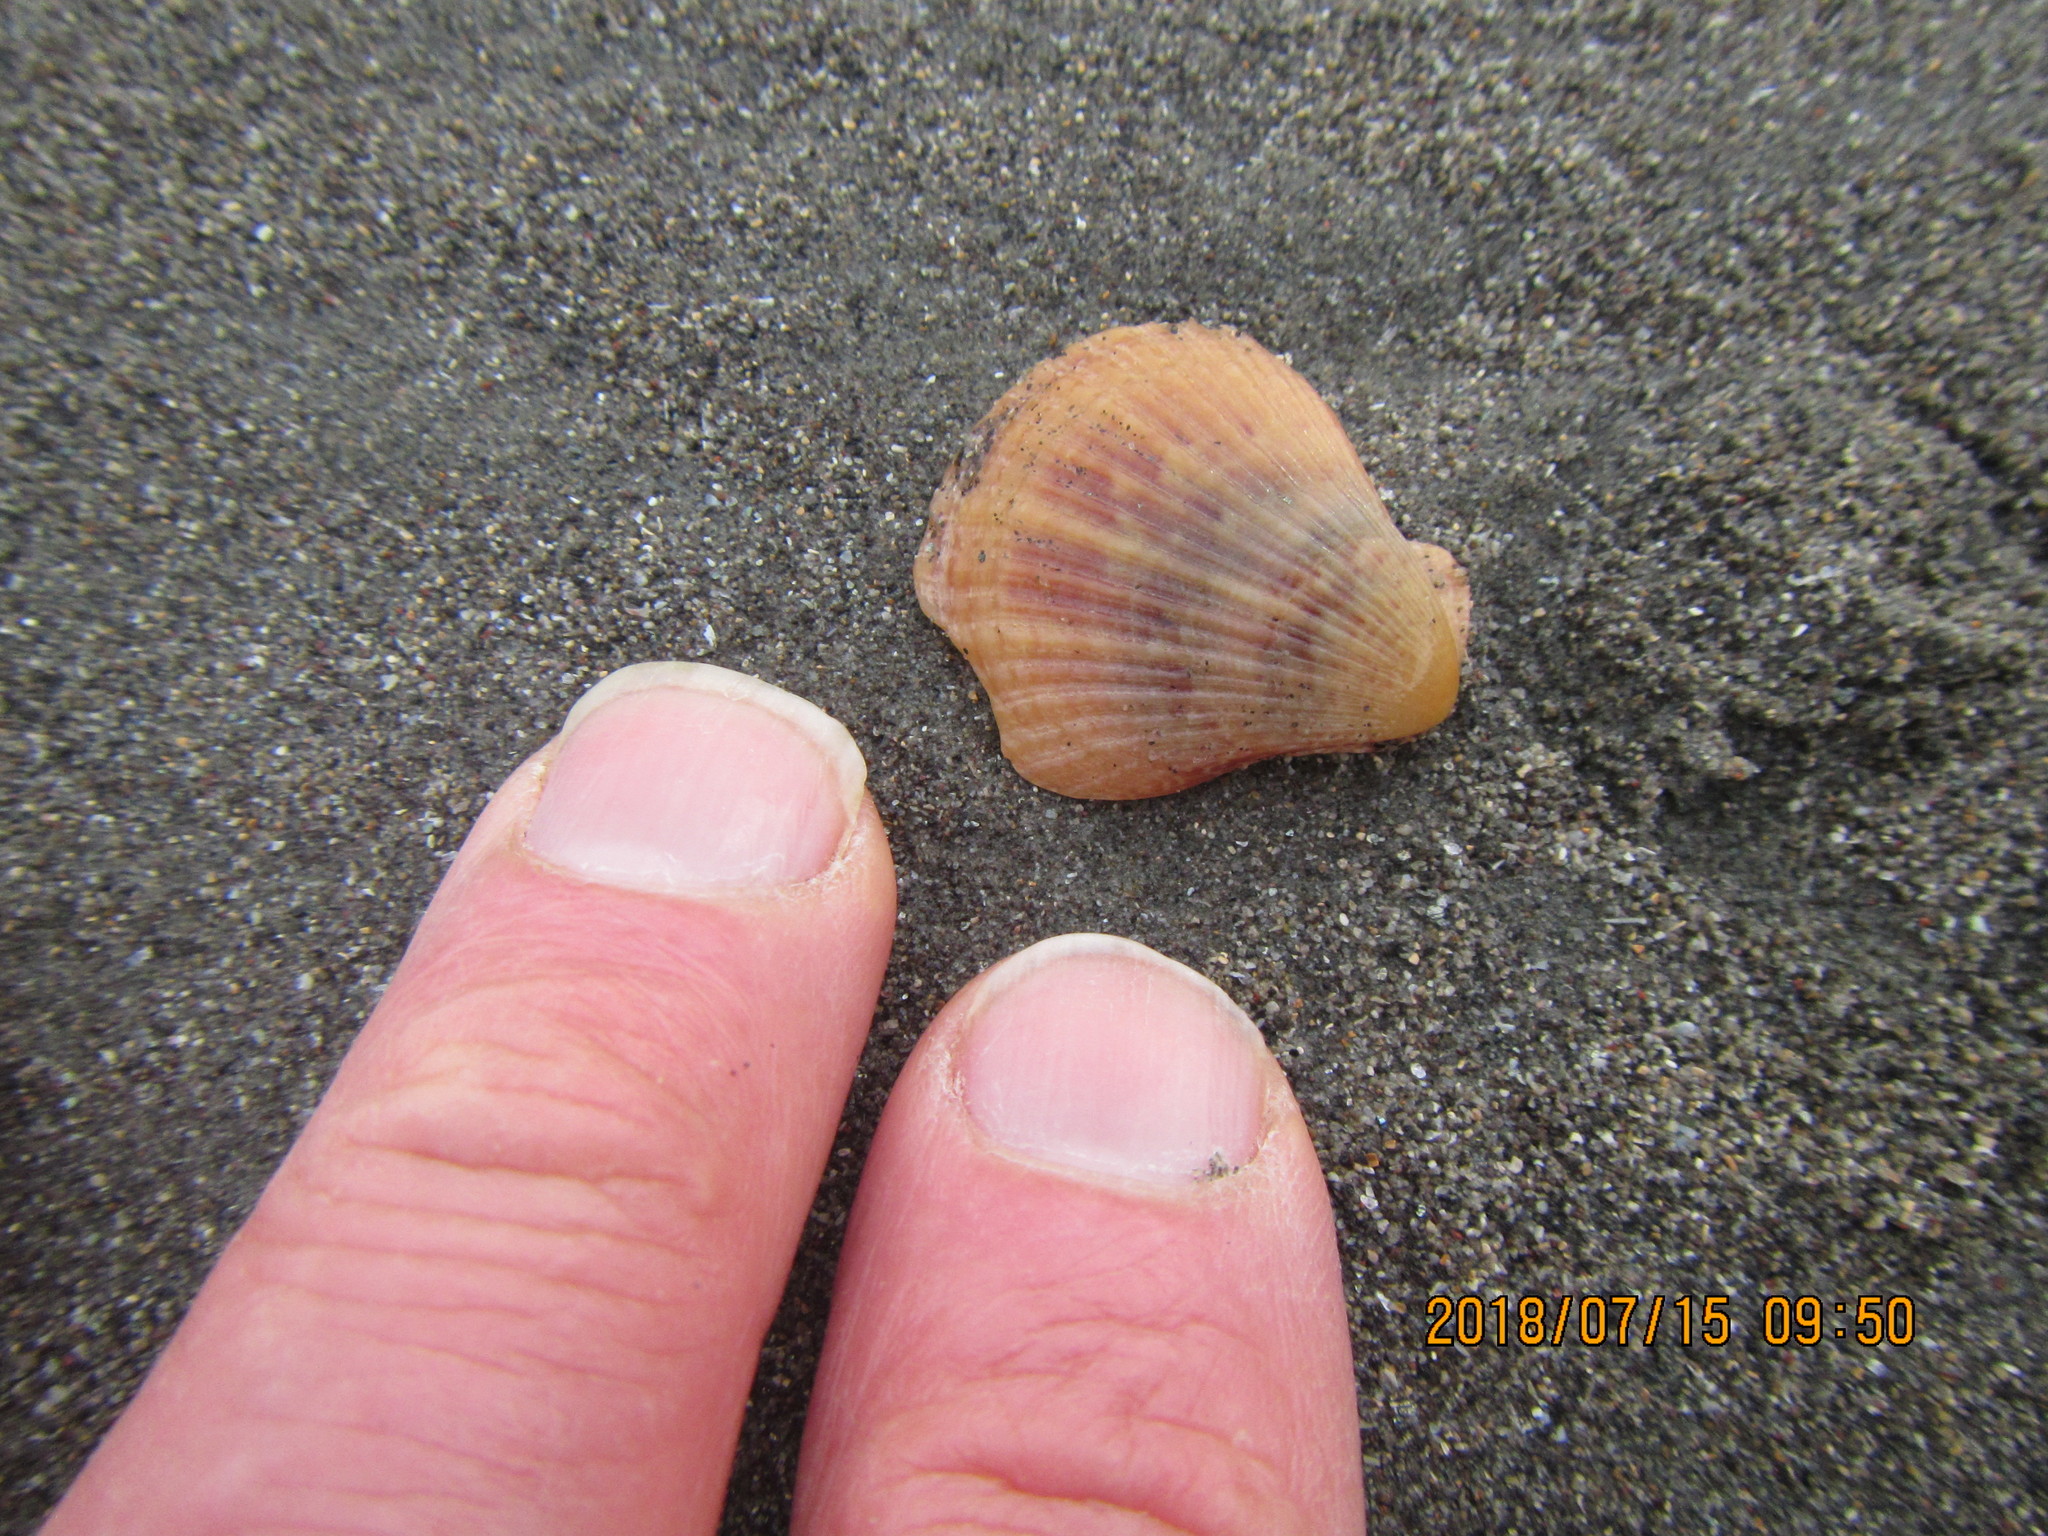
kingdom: Animalia
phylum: Mollusca
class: Bivalvia
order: Pectinida
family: Pectinidae
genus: Talochlamys
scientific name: Talochlamys zelandiae
